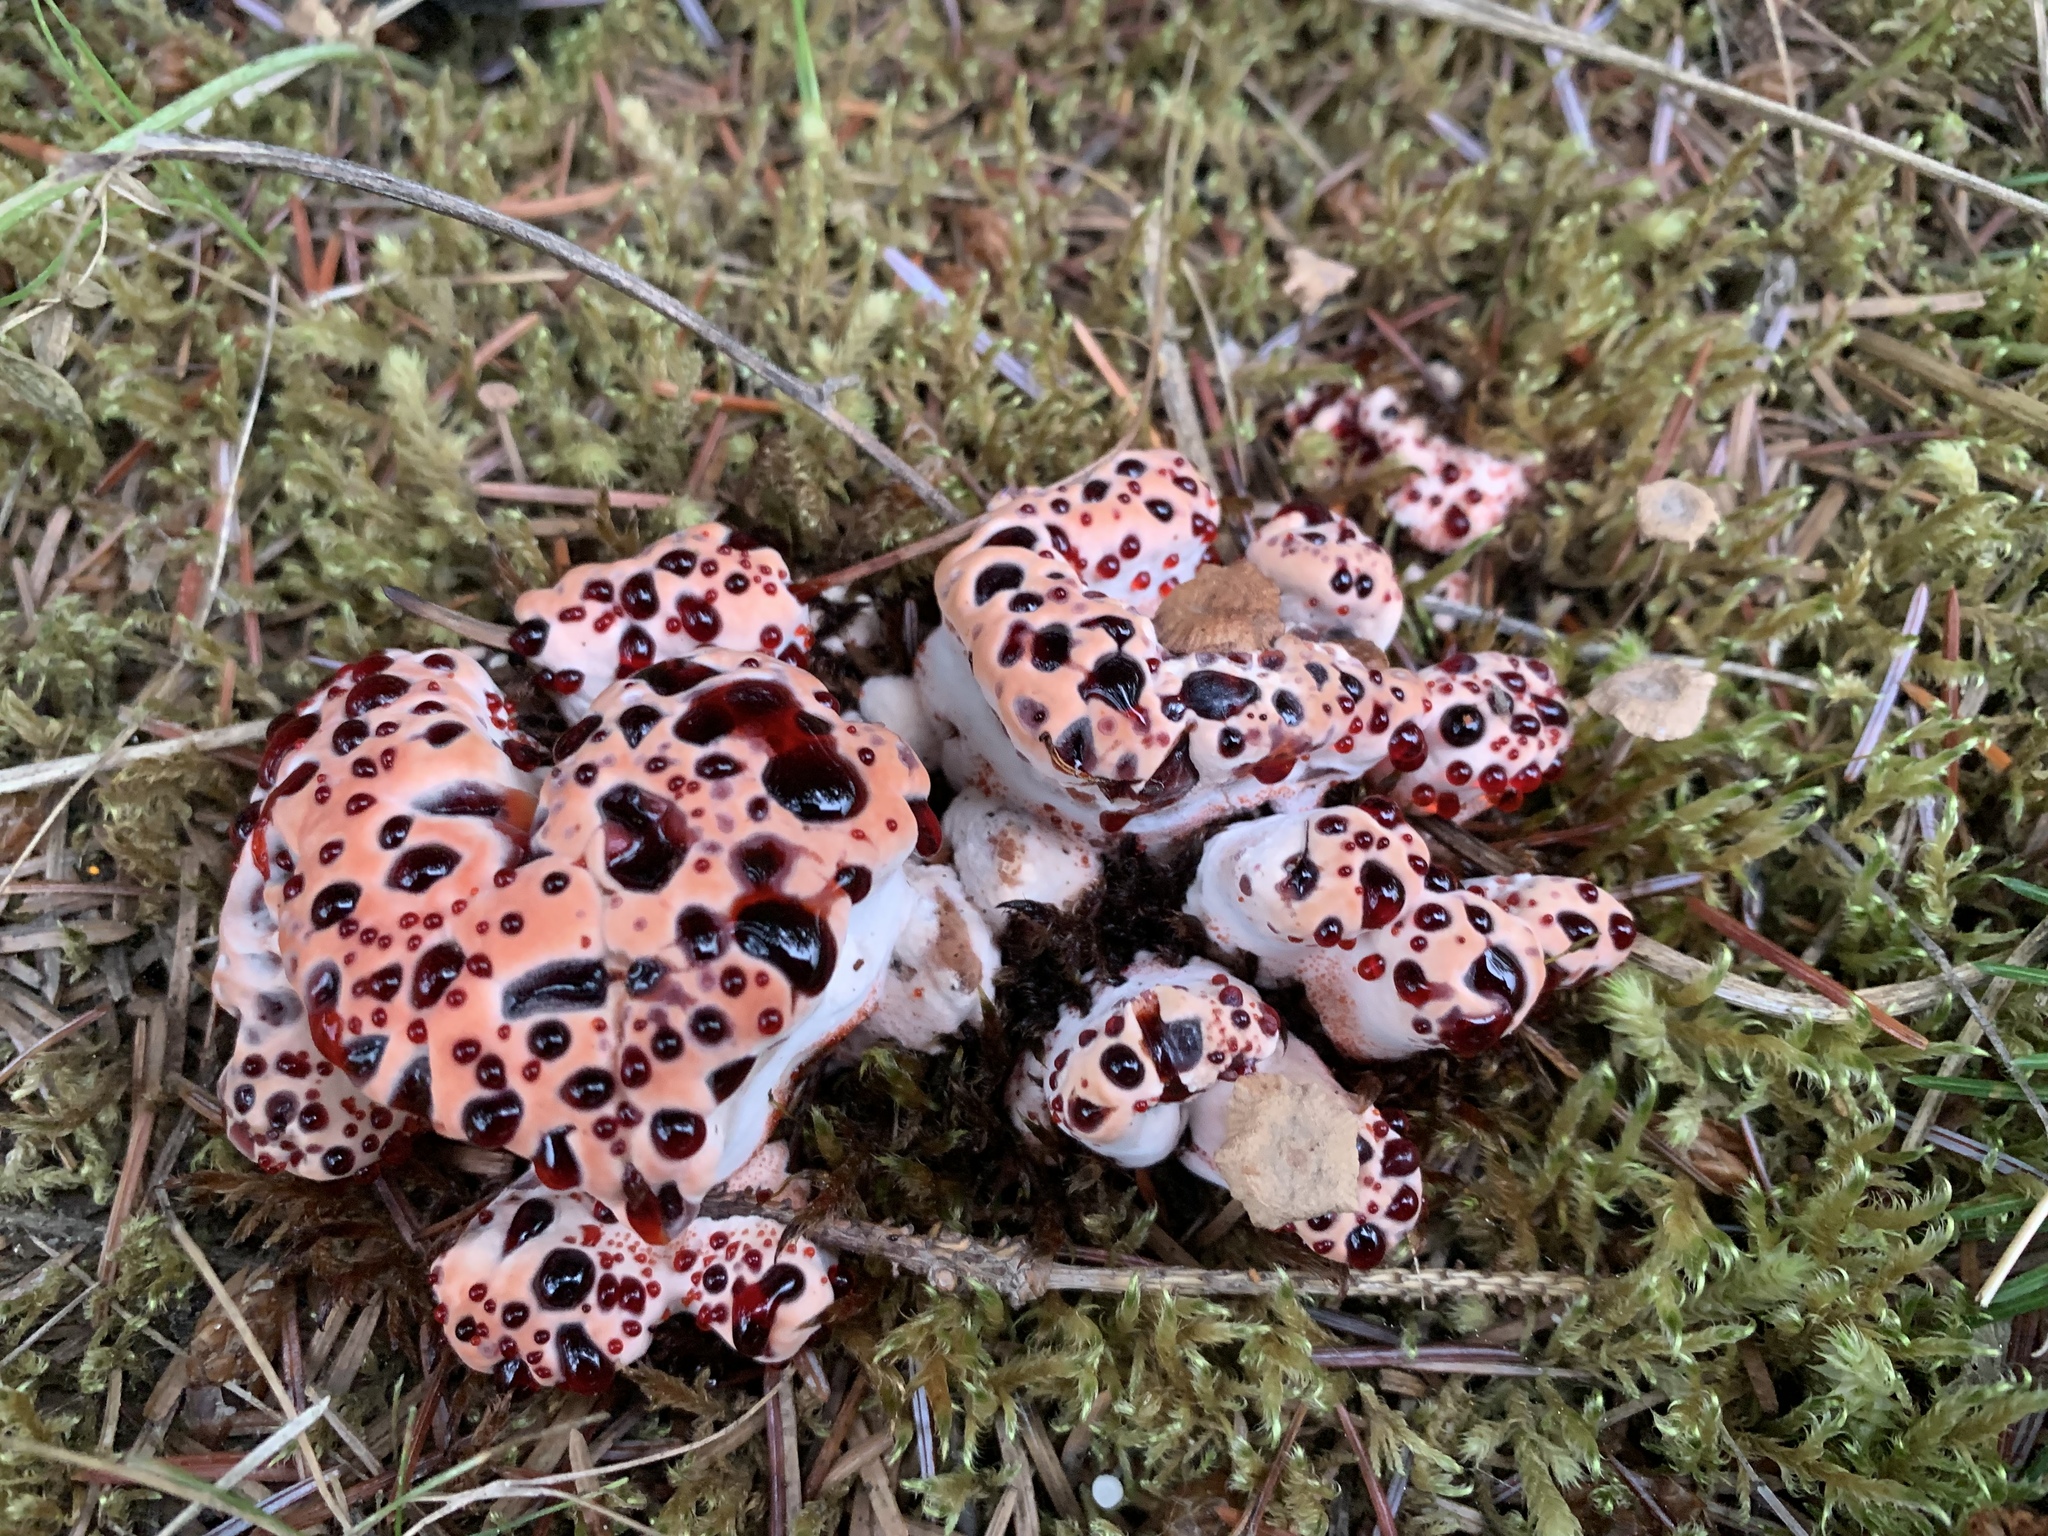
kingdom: Fungi
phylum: Basidiomycota
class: Agaricomycetes
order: Thelephorales
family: Bankeraceae
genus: Hydnellum
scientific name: Hydnellum peckii
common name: Devil's tooth
